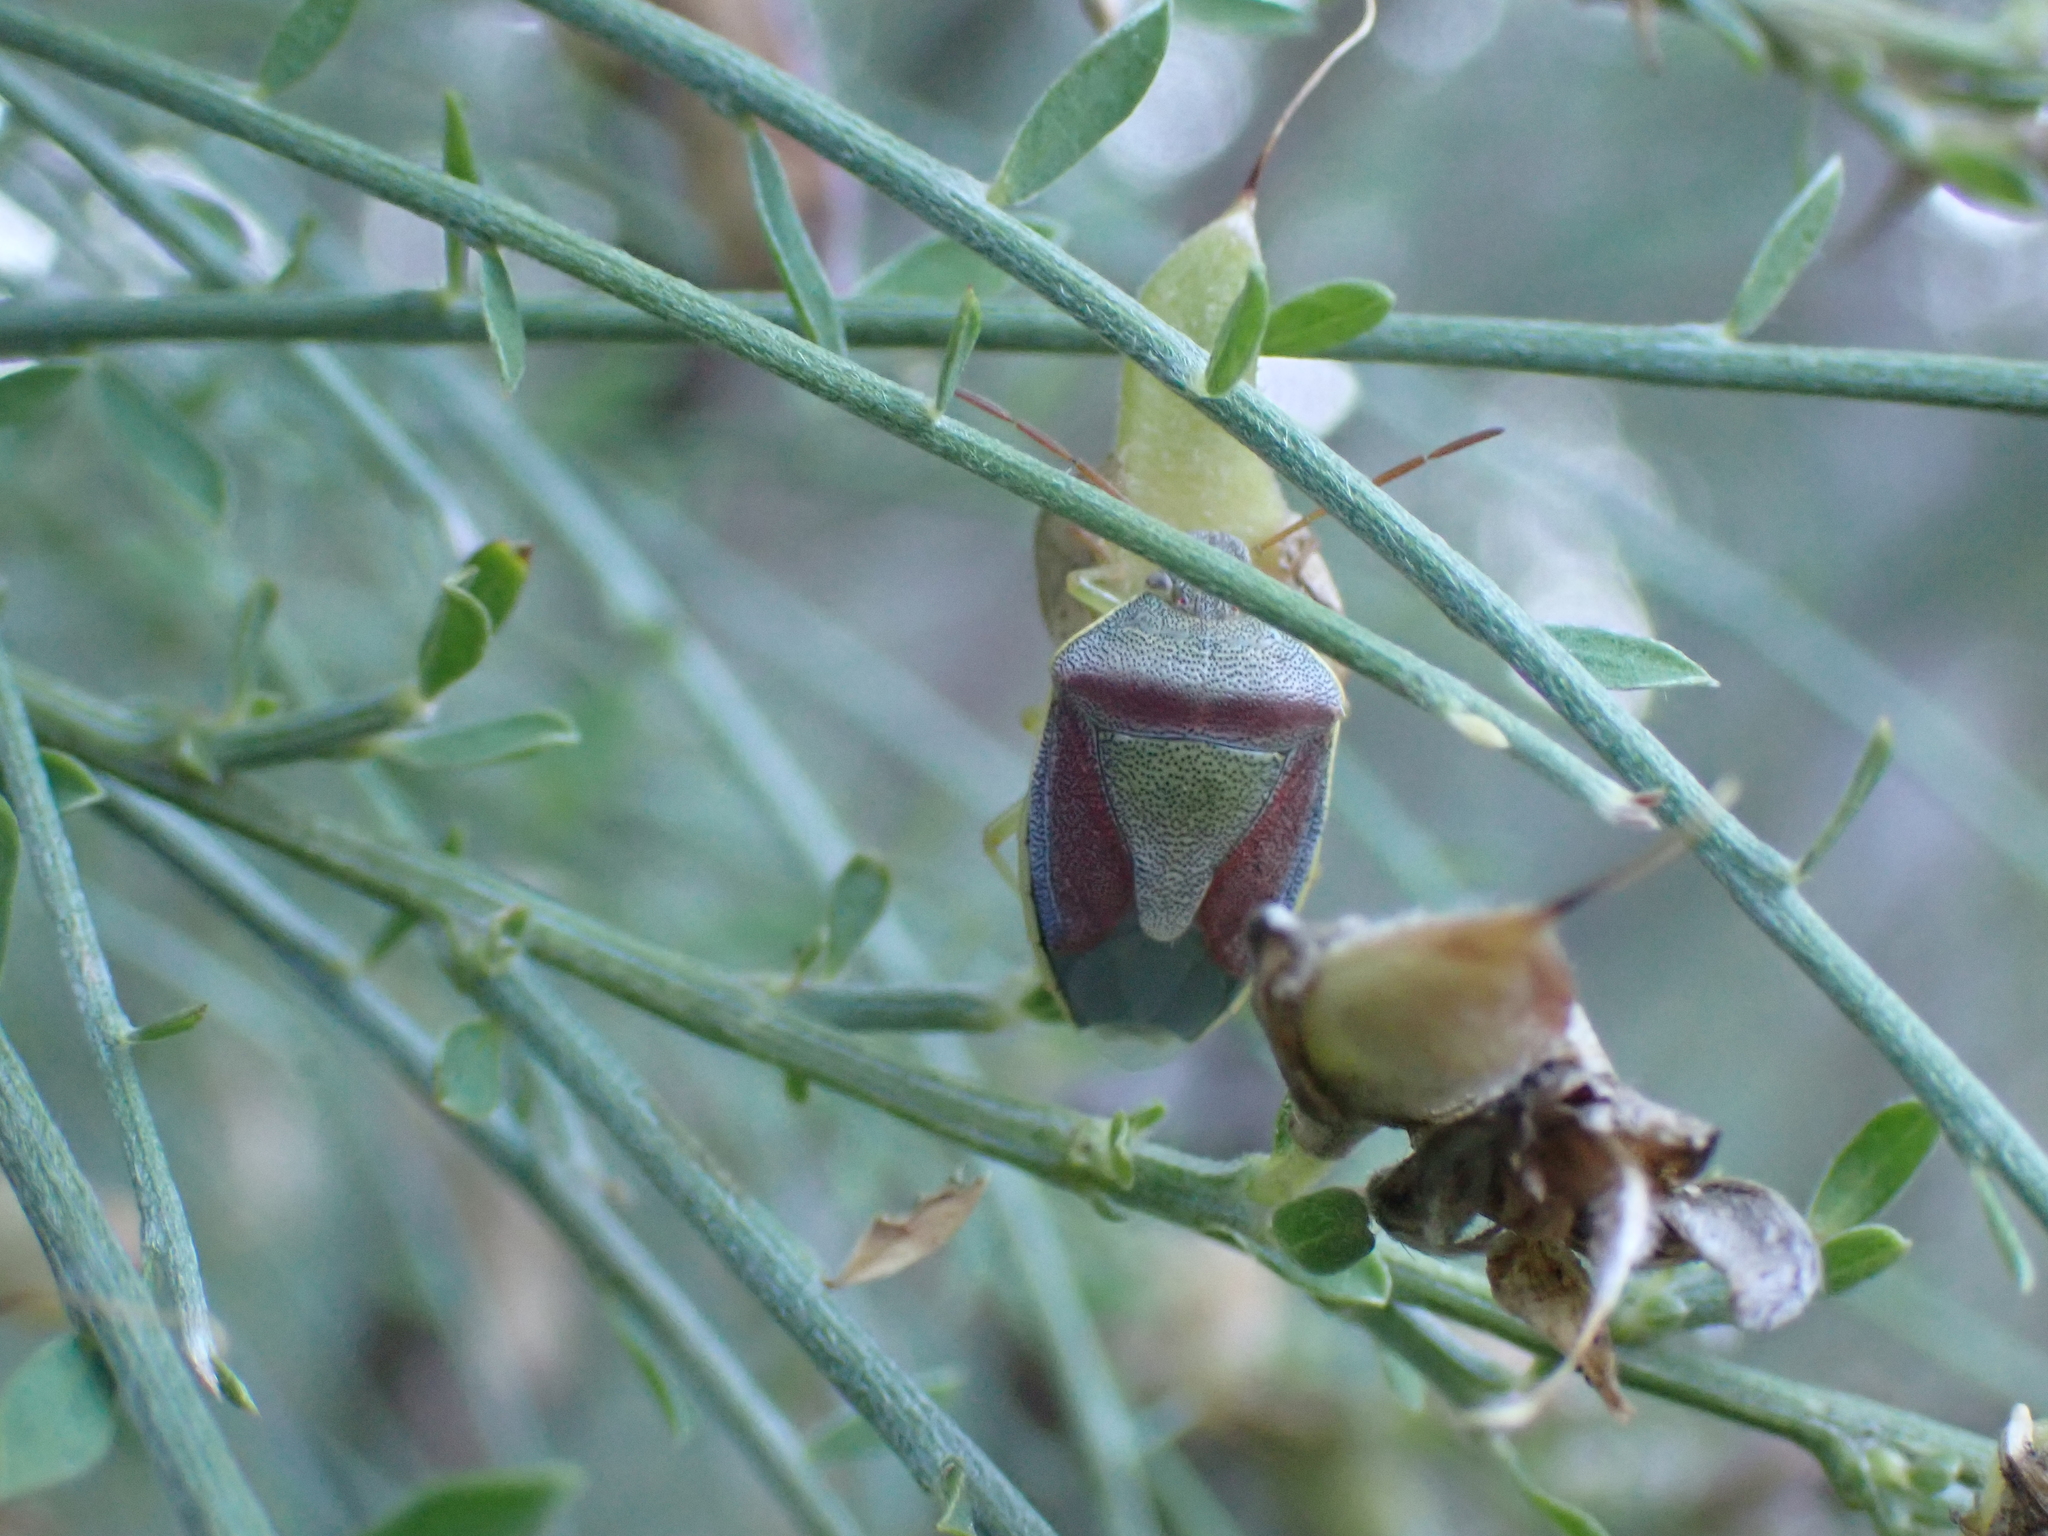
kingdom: Animalia
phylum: Arthropoda
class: Insecta
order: Hemiptera
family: Pentatomidae
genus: Piezodorus
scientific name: Piezodorus lituratus
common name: Stink bug
